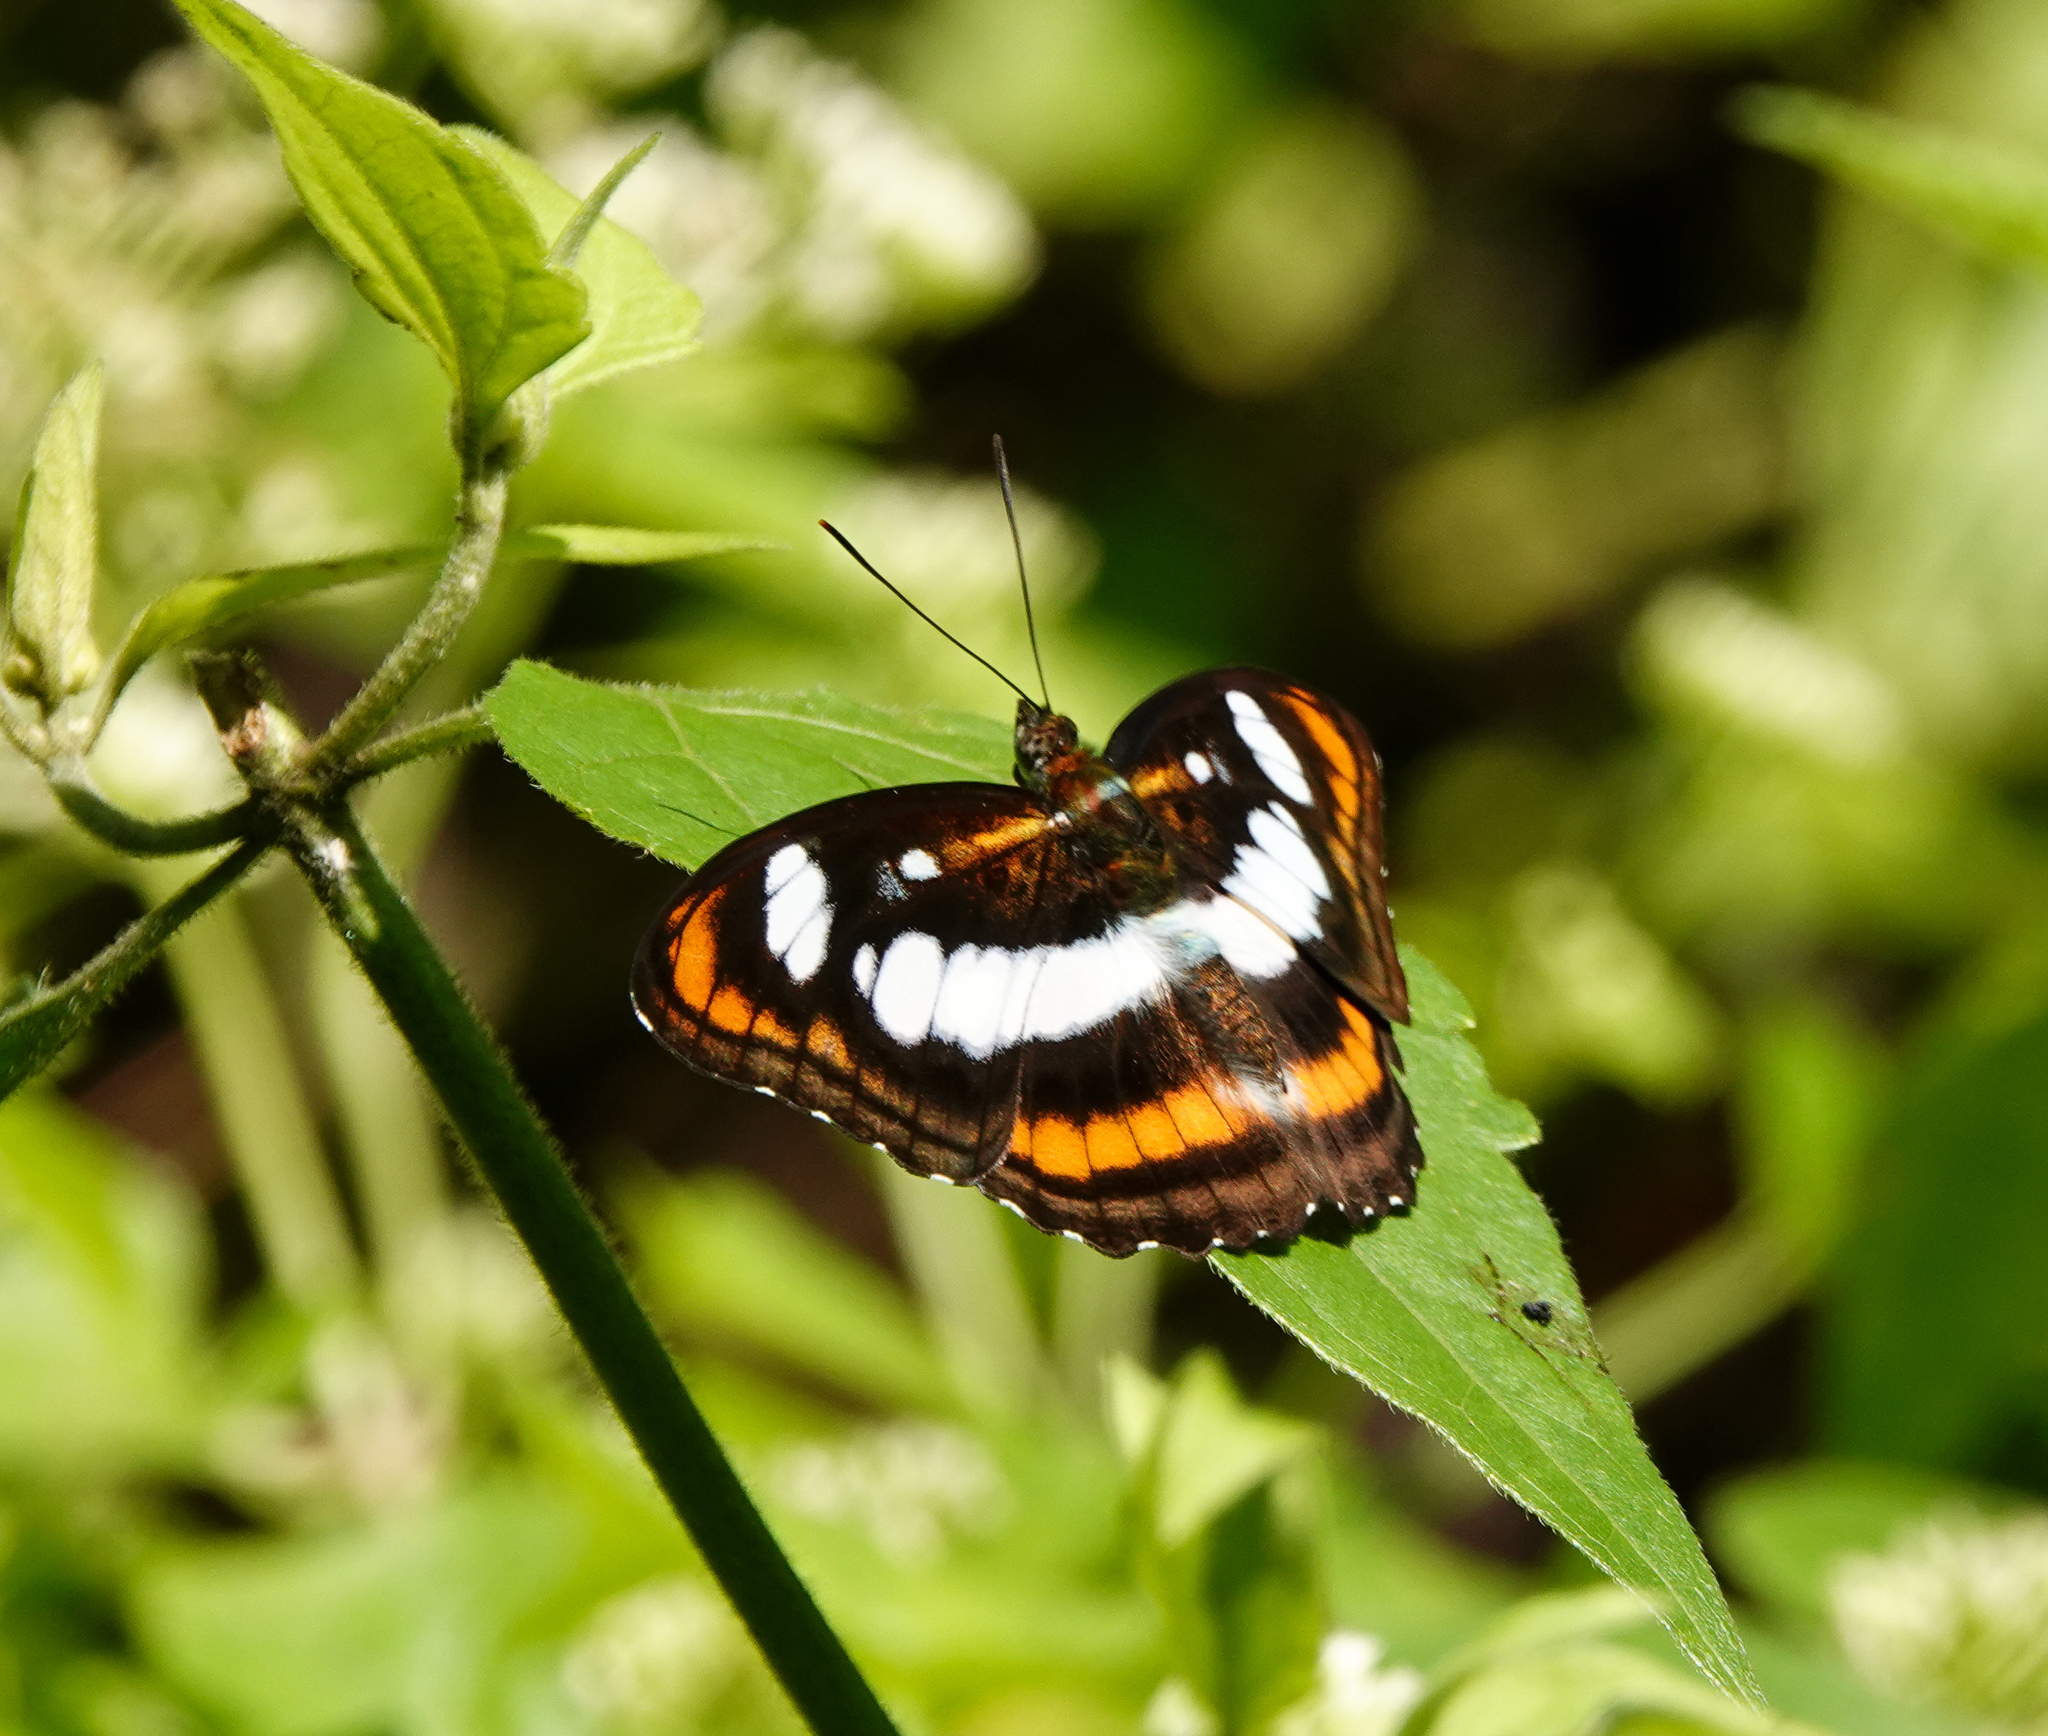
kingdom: Animalia
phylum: Arthropoda
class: Insecta
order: Lepidoptera
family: Nymphalidae
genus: Parathyma
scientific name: Parathyma nefte
